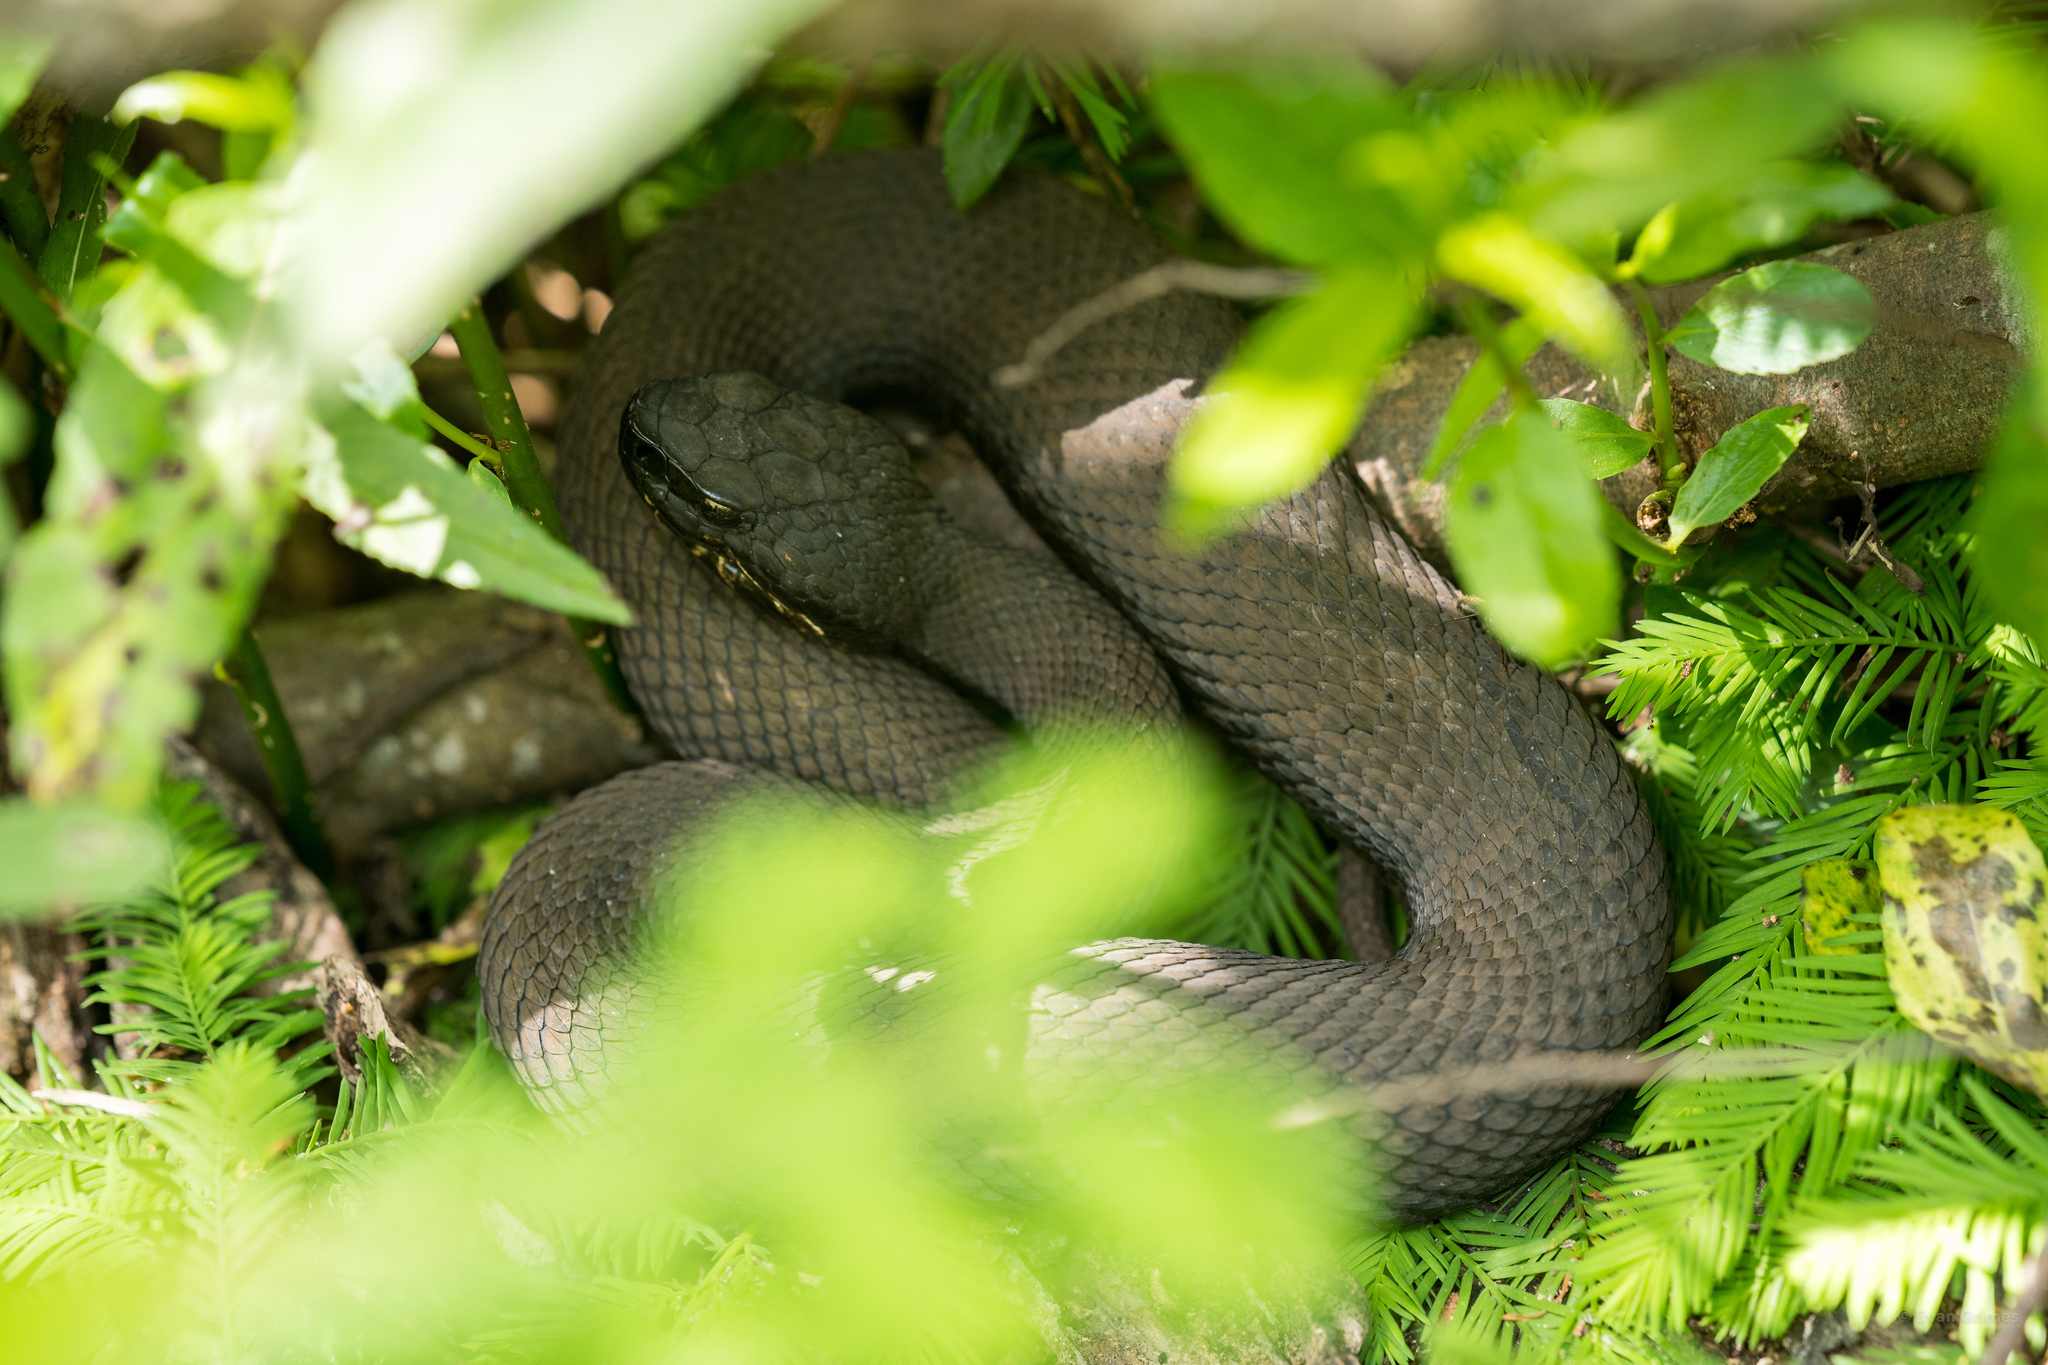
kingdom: Animalia
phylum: Chordata
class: Squamata
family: Viperidae
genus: Agkistrodon
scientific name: Agkistrodon piscivorus
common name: Cottonmouth
